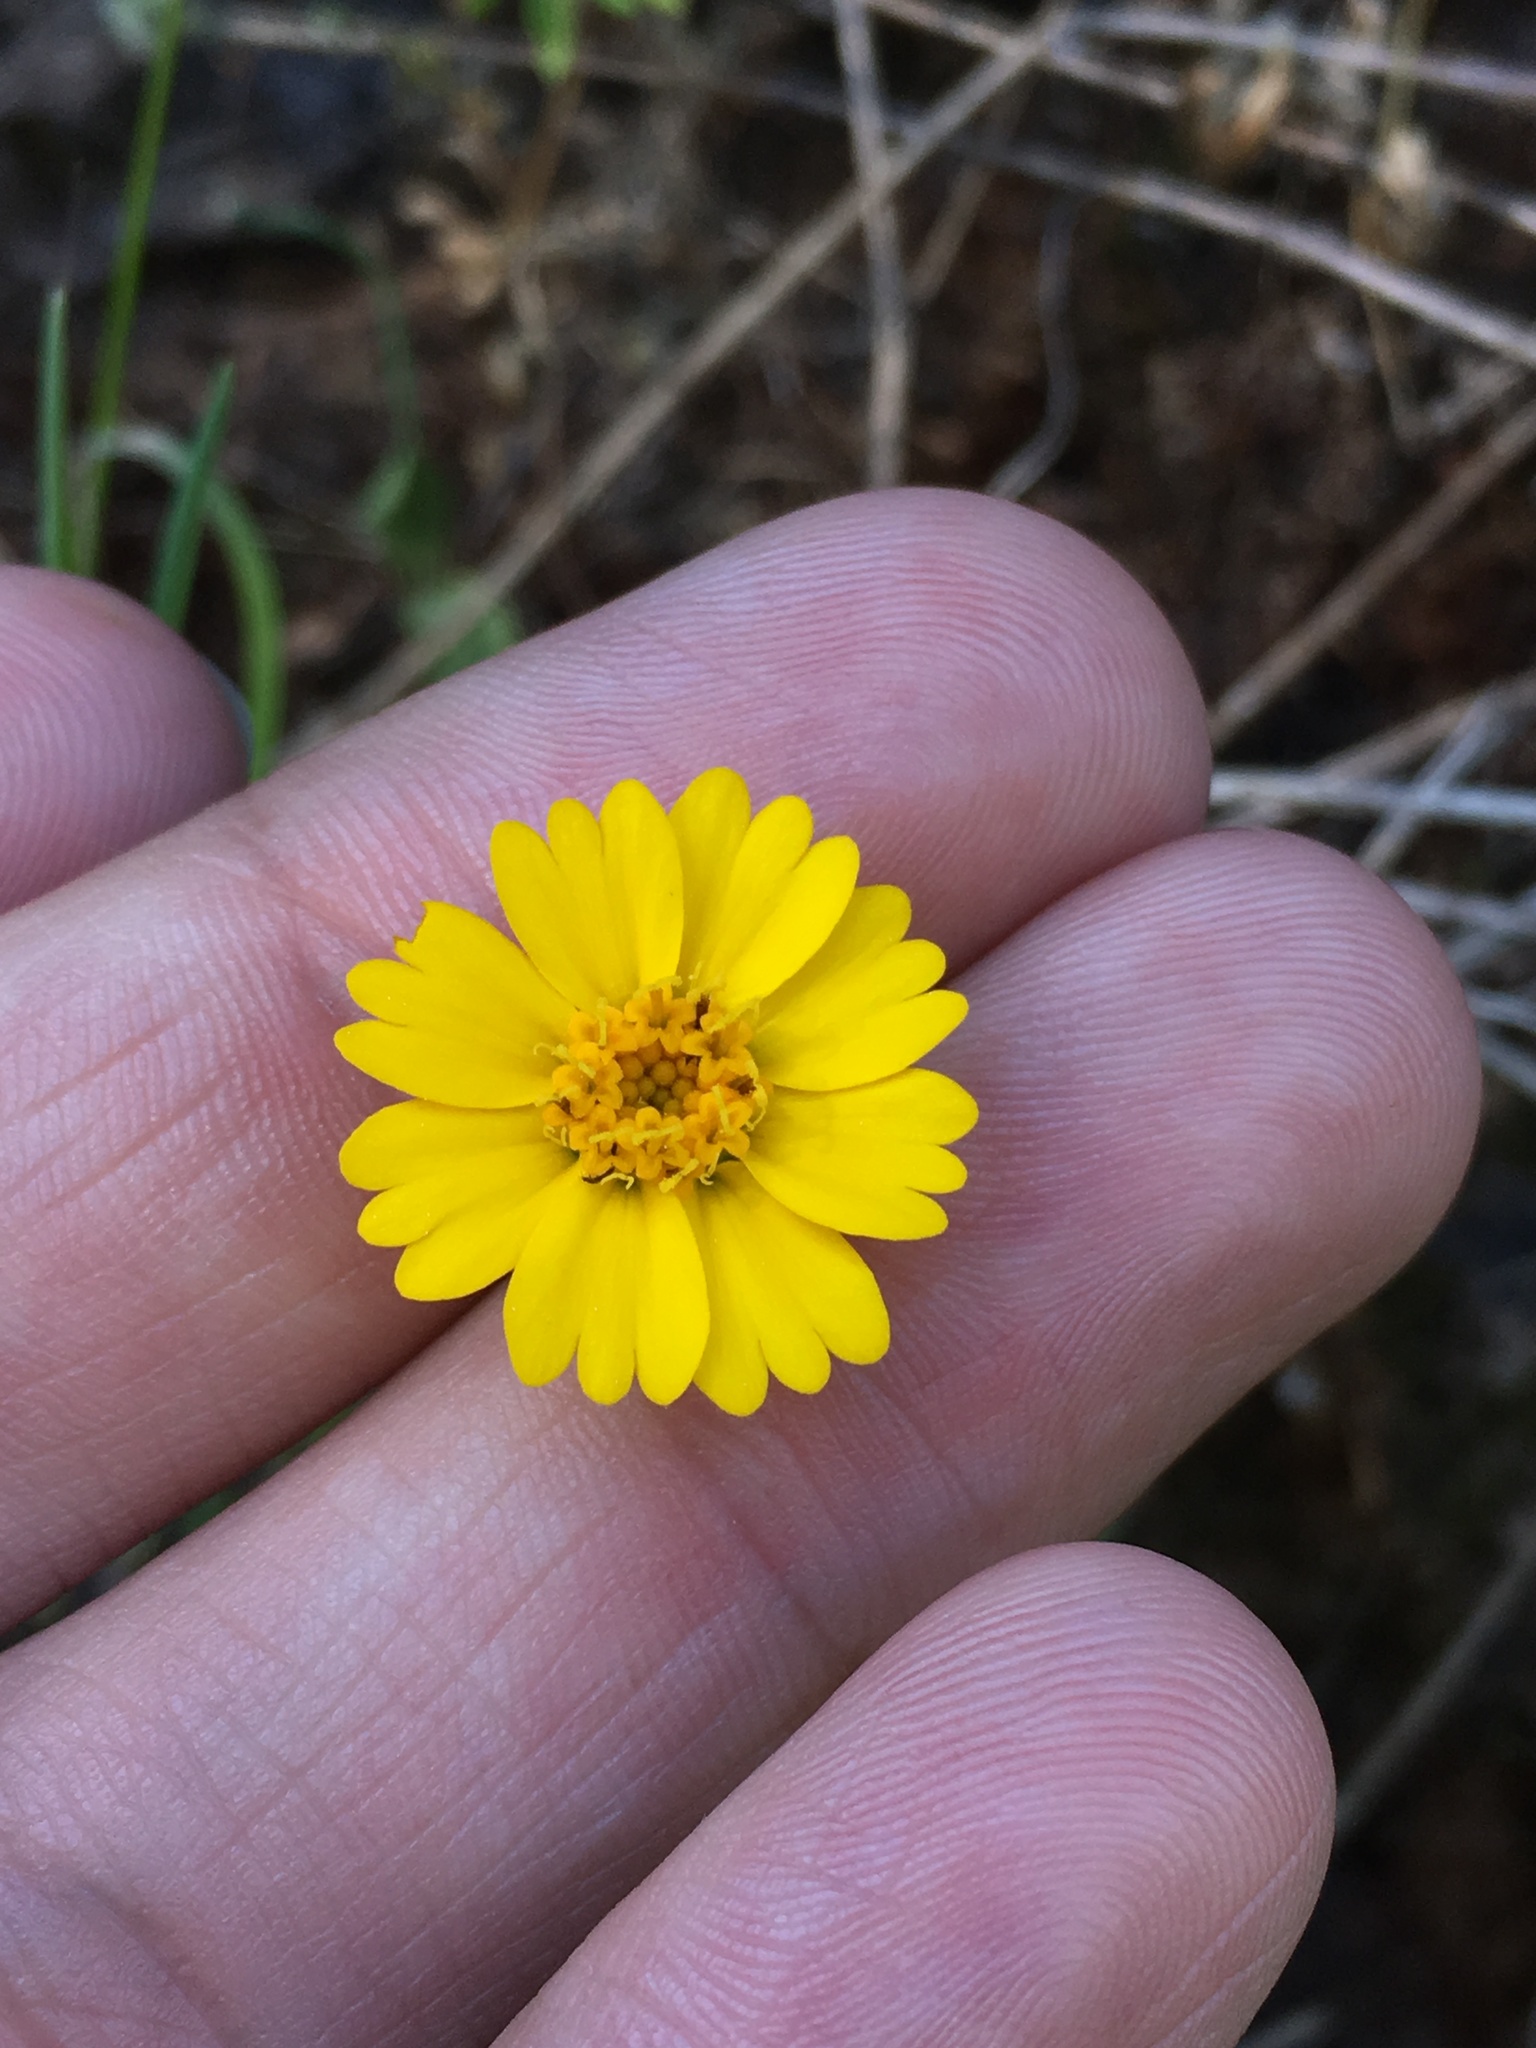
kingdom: Plantae
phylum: Tracheophyta
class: Magnoliopsida
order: Asterales
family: Asteraceae
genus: Layia
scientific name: Layia pentachaeta
